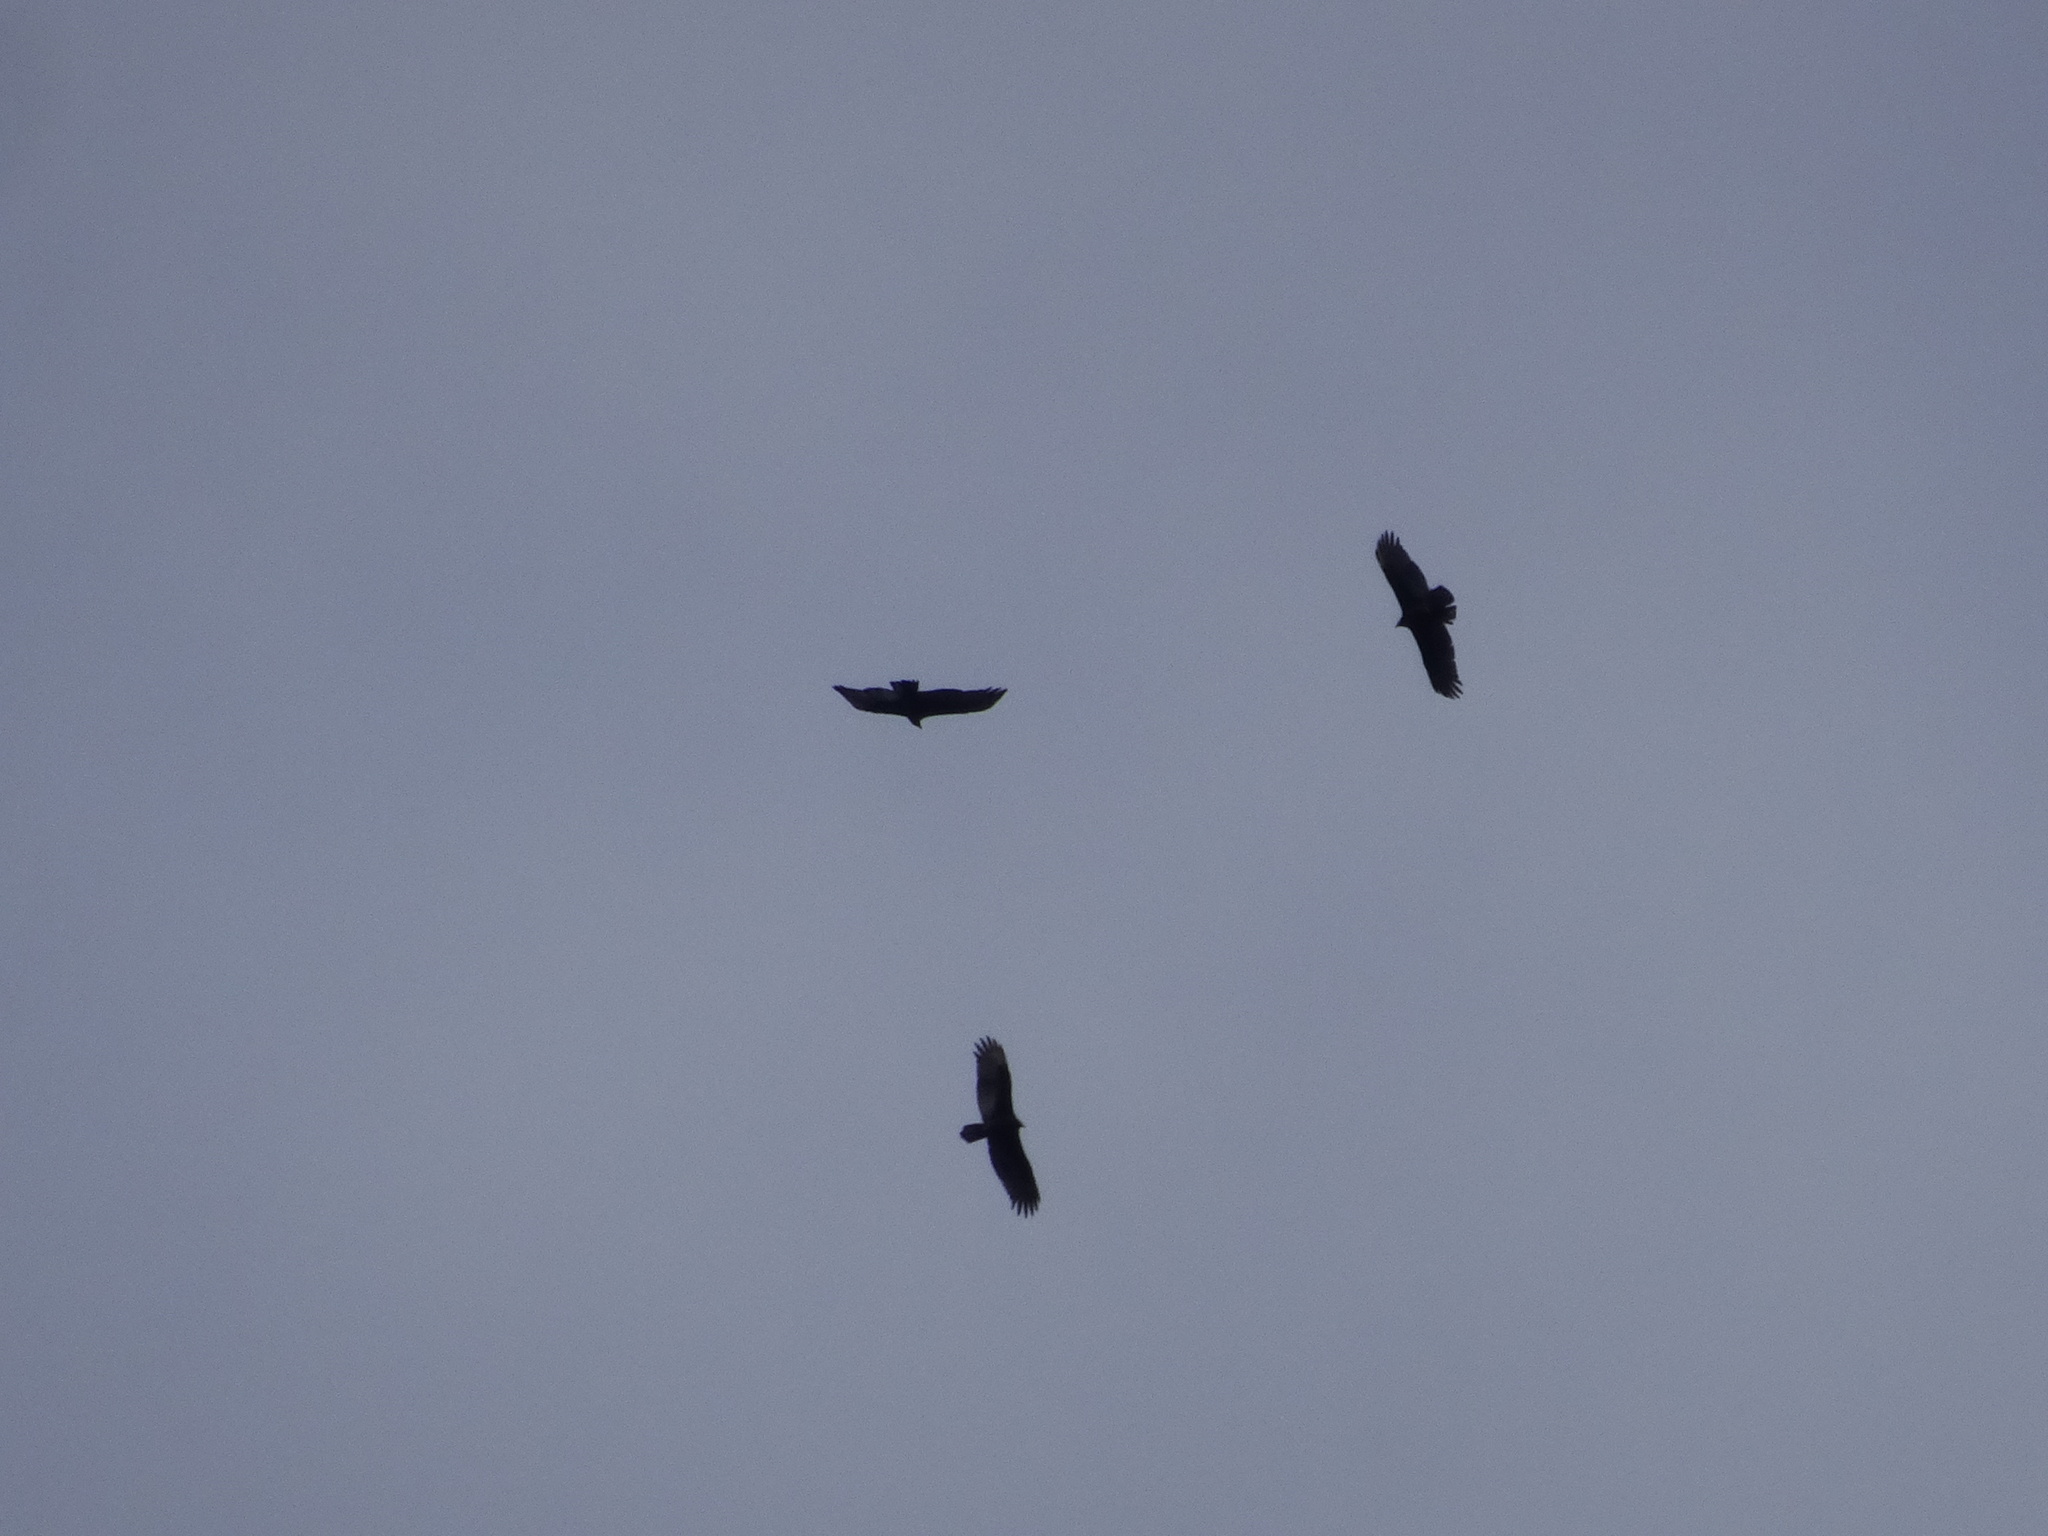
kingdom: Animalia
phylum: Chordata
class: Aves
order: Accipitriformes
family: Cathartidae
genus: Cathartes
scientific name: Cathartes aura
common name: Turkey vulture
